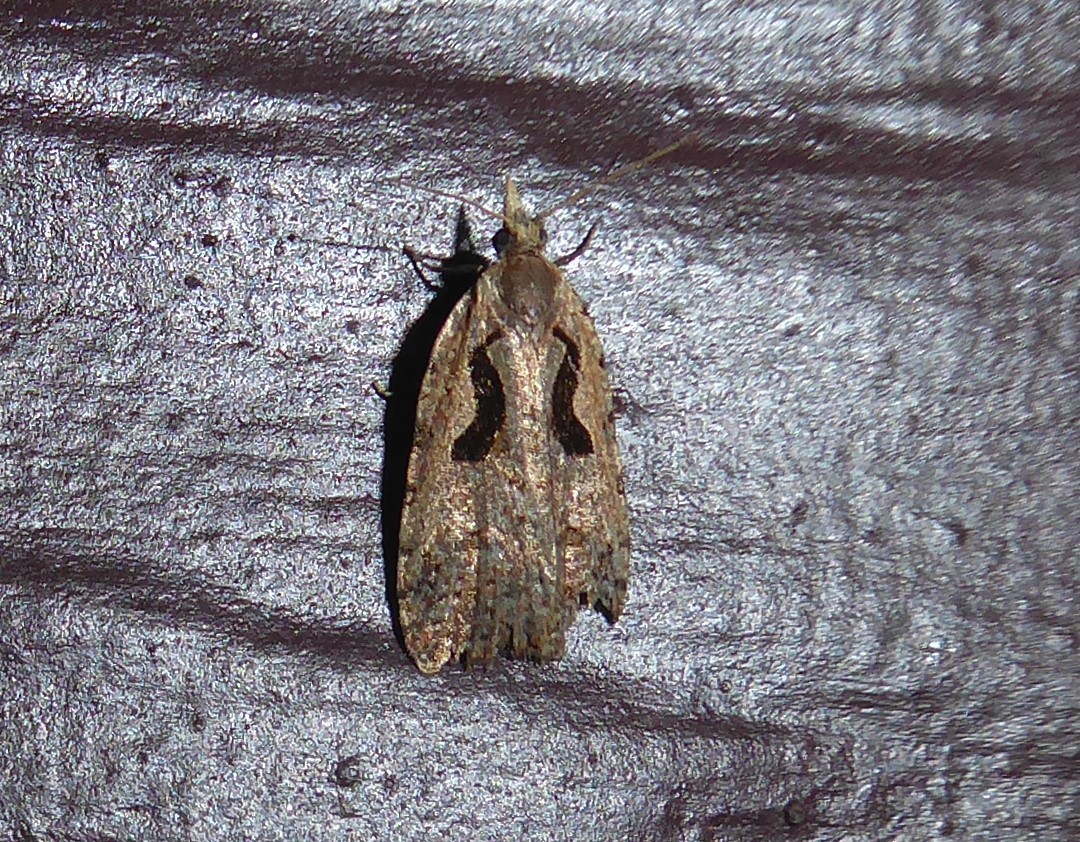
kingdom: Animalia
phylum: Arthropoda
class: Insecta
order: Lepidoptera
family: Tortricidae
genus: Cnephasia
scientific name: Cnephasia jactatana
